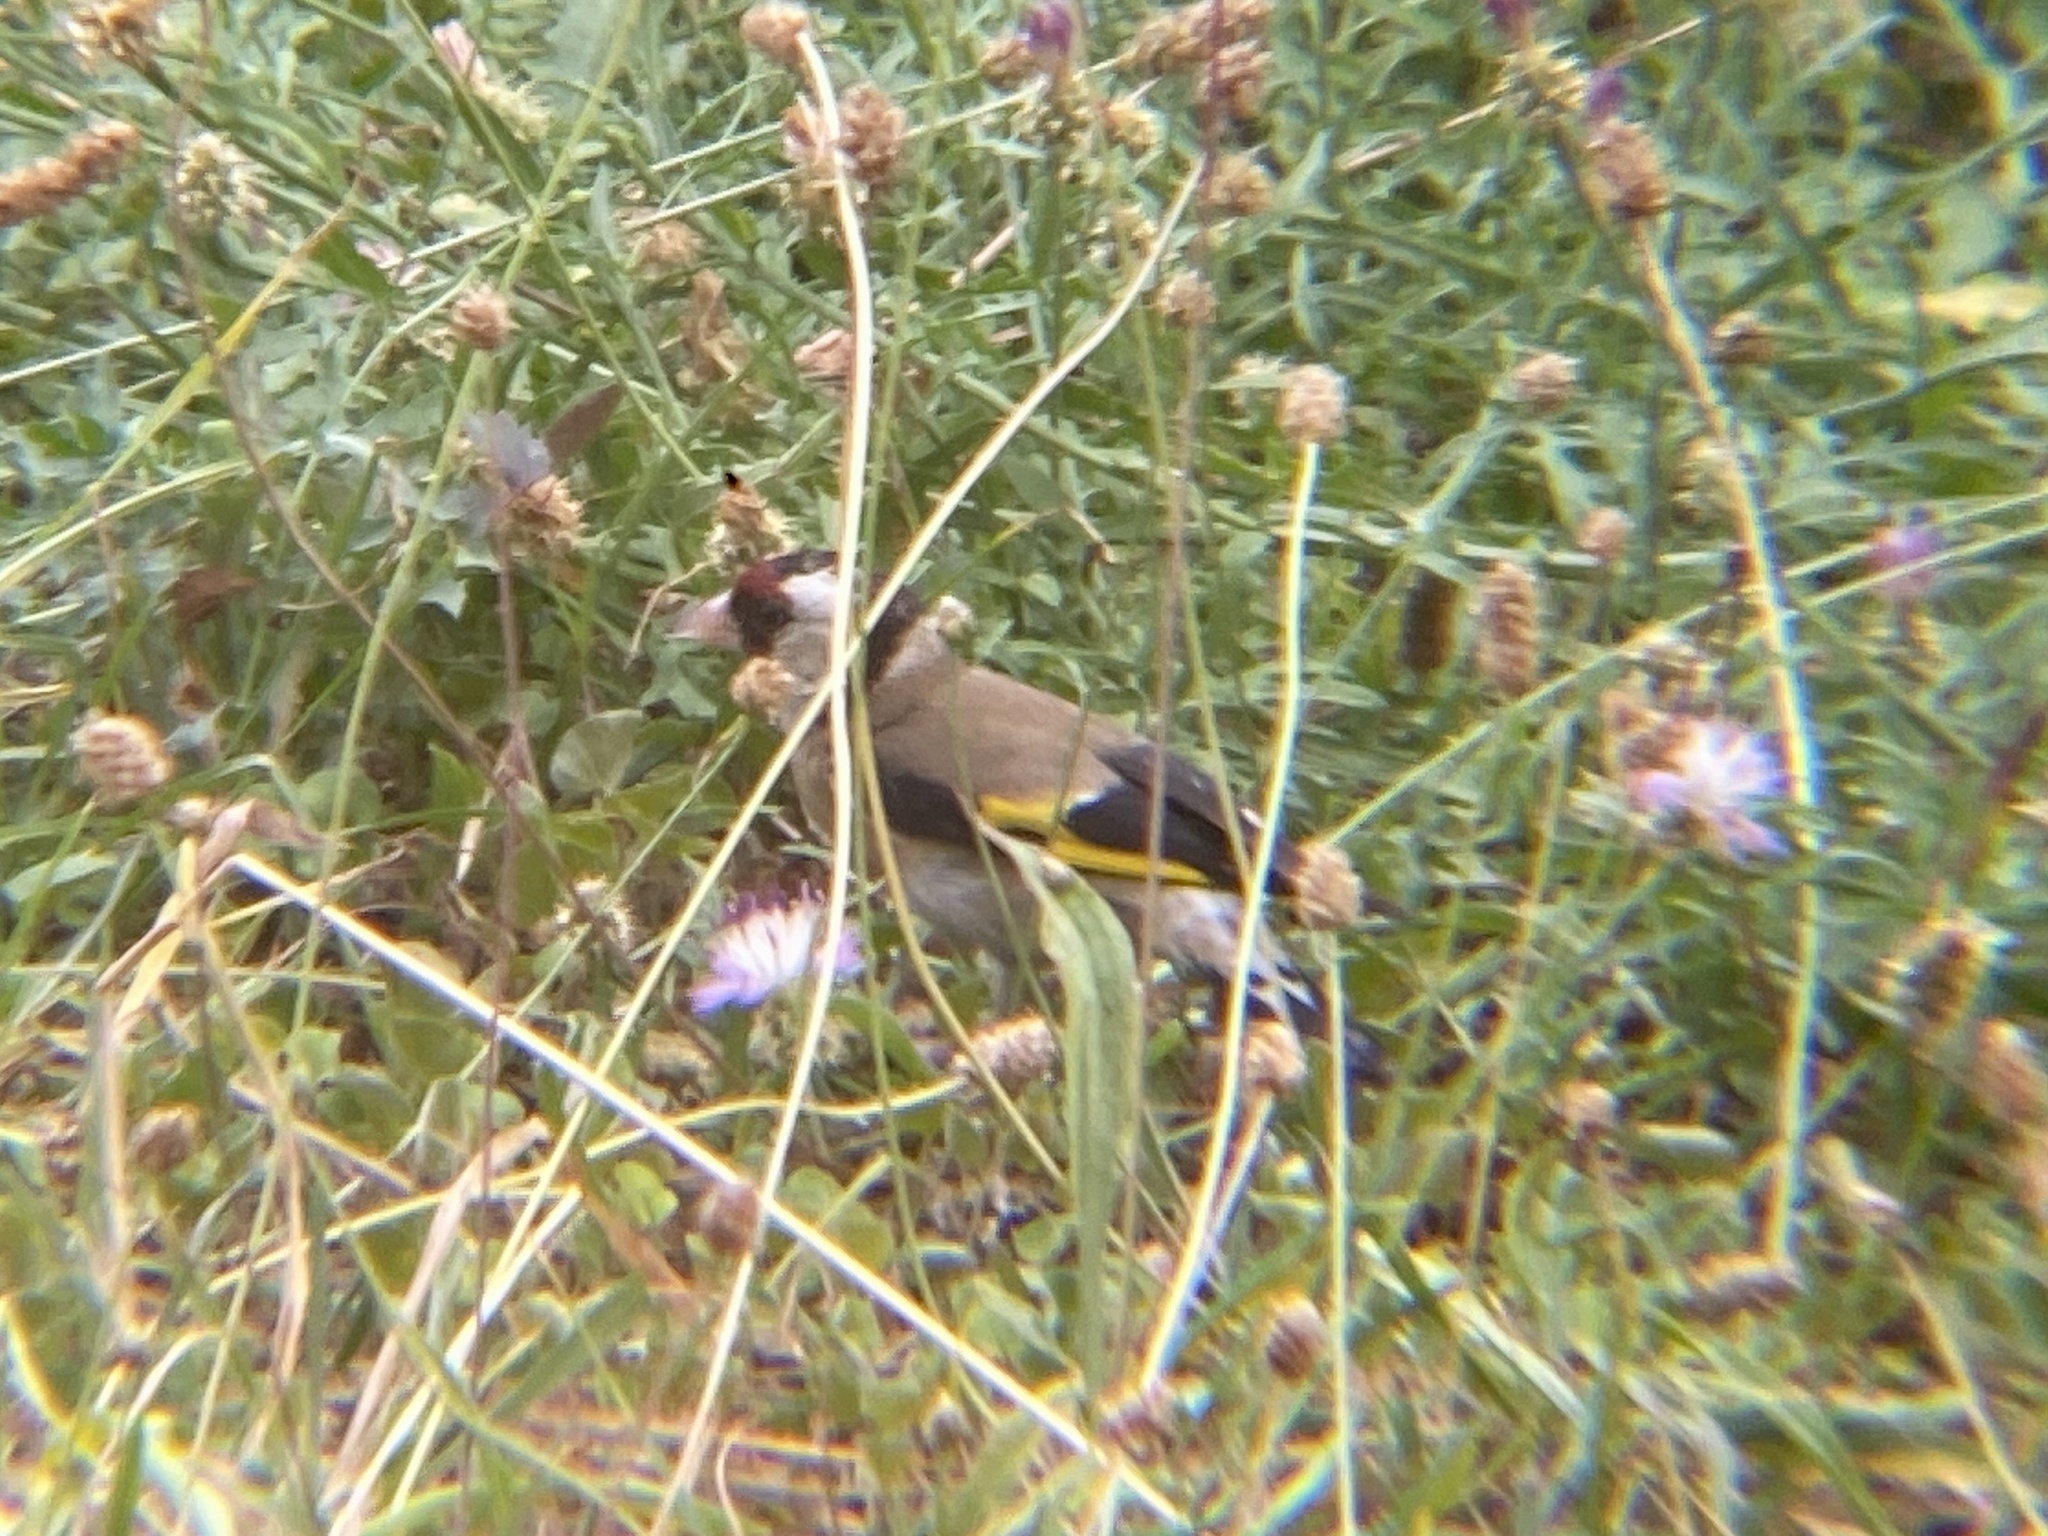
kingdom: Animalia
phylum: Chordata
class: Aves
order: Passeriformes
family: Fringillidae
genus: Carduelis
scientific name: Carduelis carduelis
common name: European goldfinch
